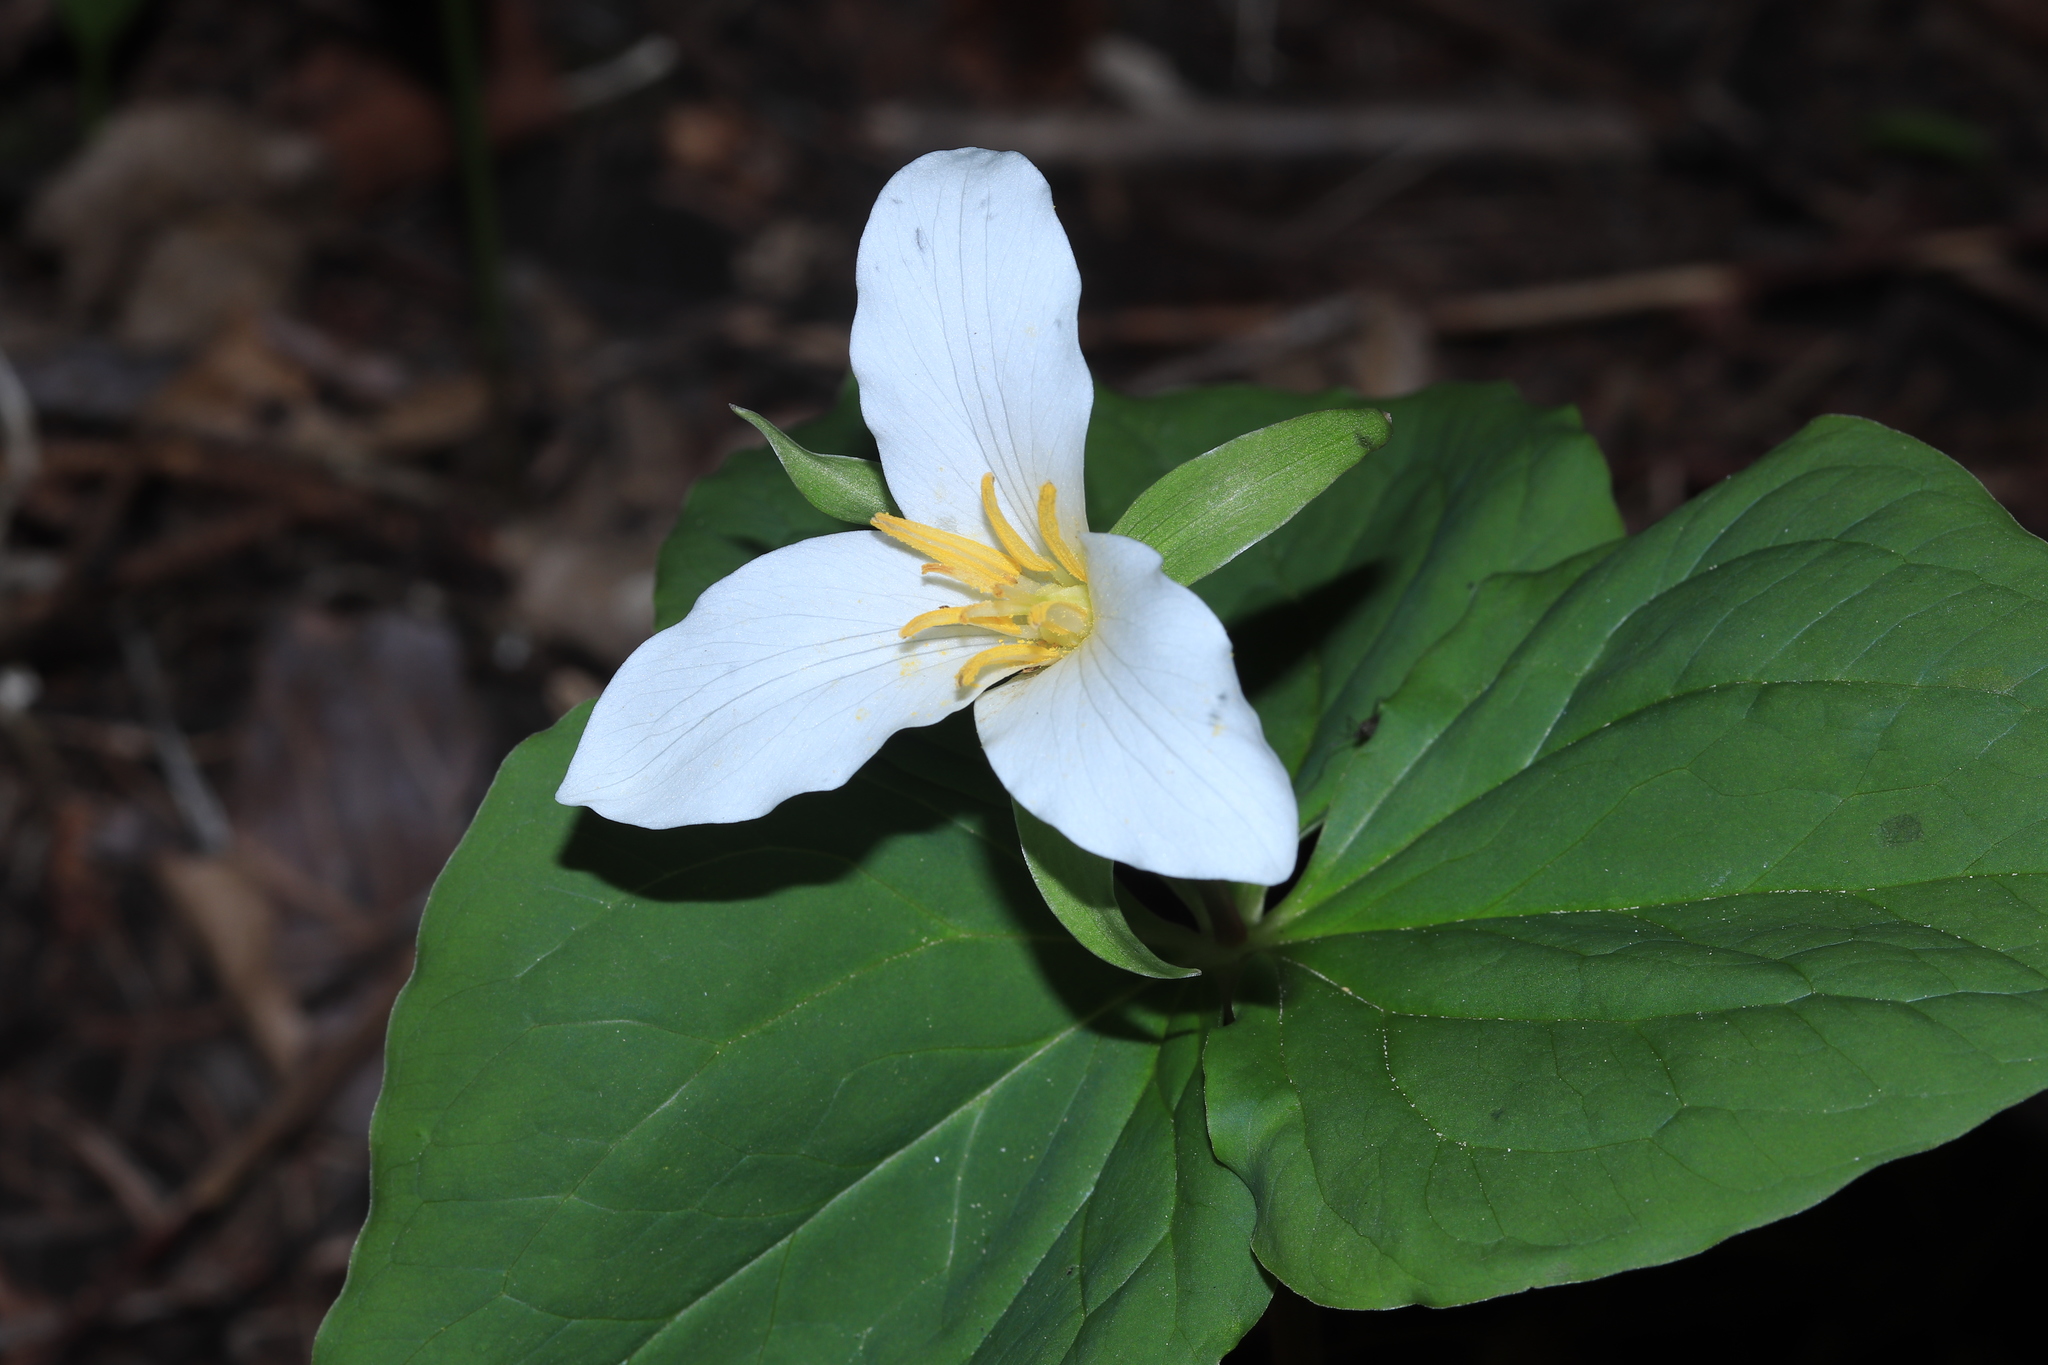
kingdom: Plantae
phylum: Tracheophyta
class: Liliopsida
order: Liliales
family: Melanthiaceae
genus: Trillium
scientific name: Trillium ovatum
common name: Pacific trillium
